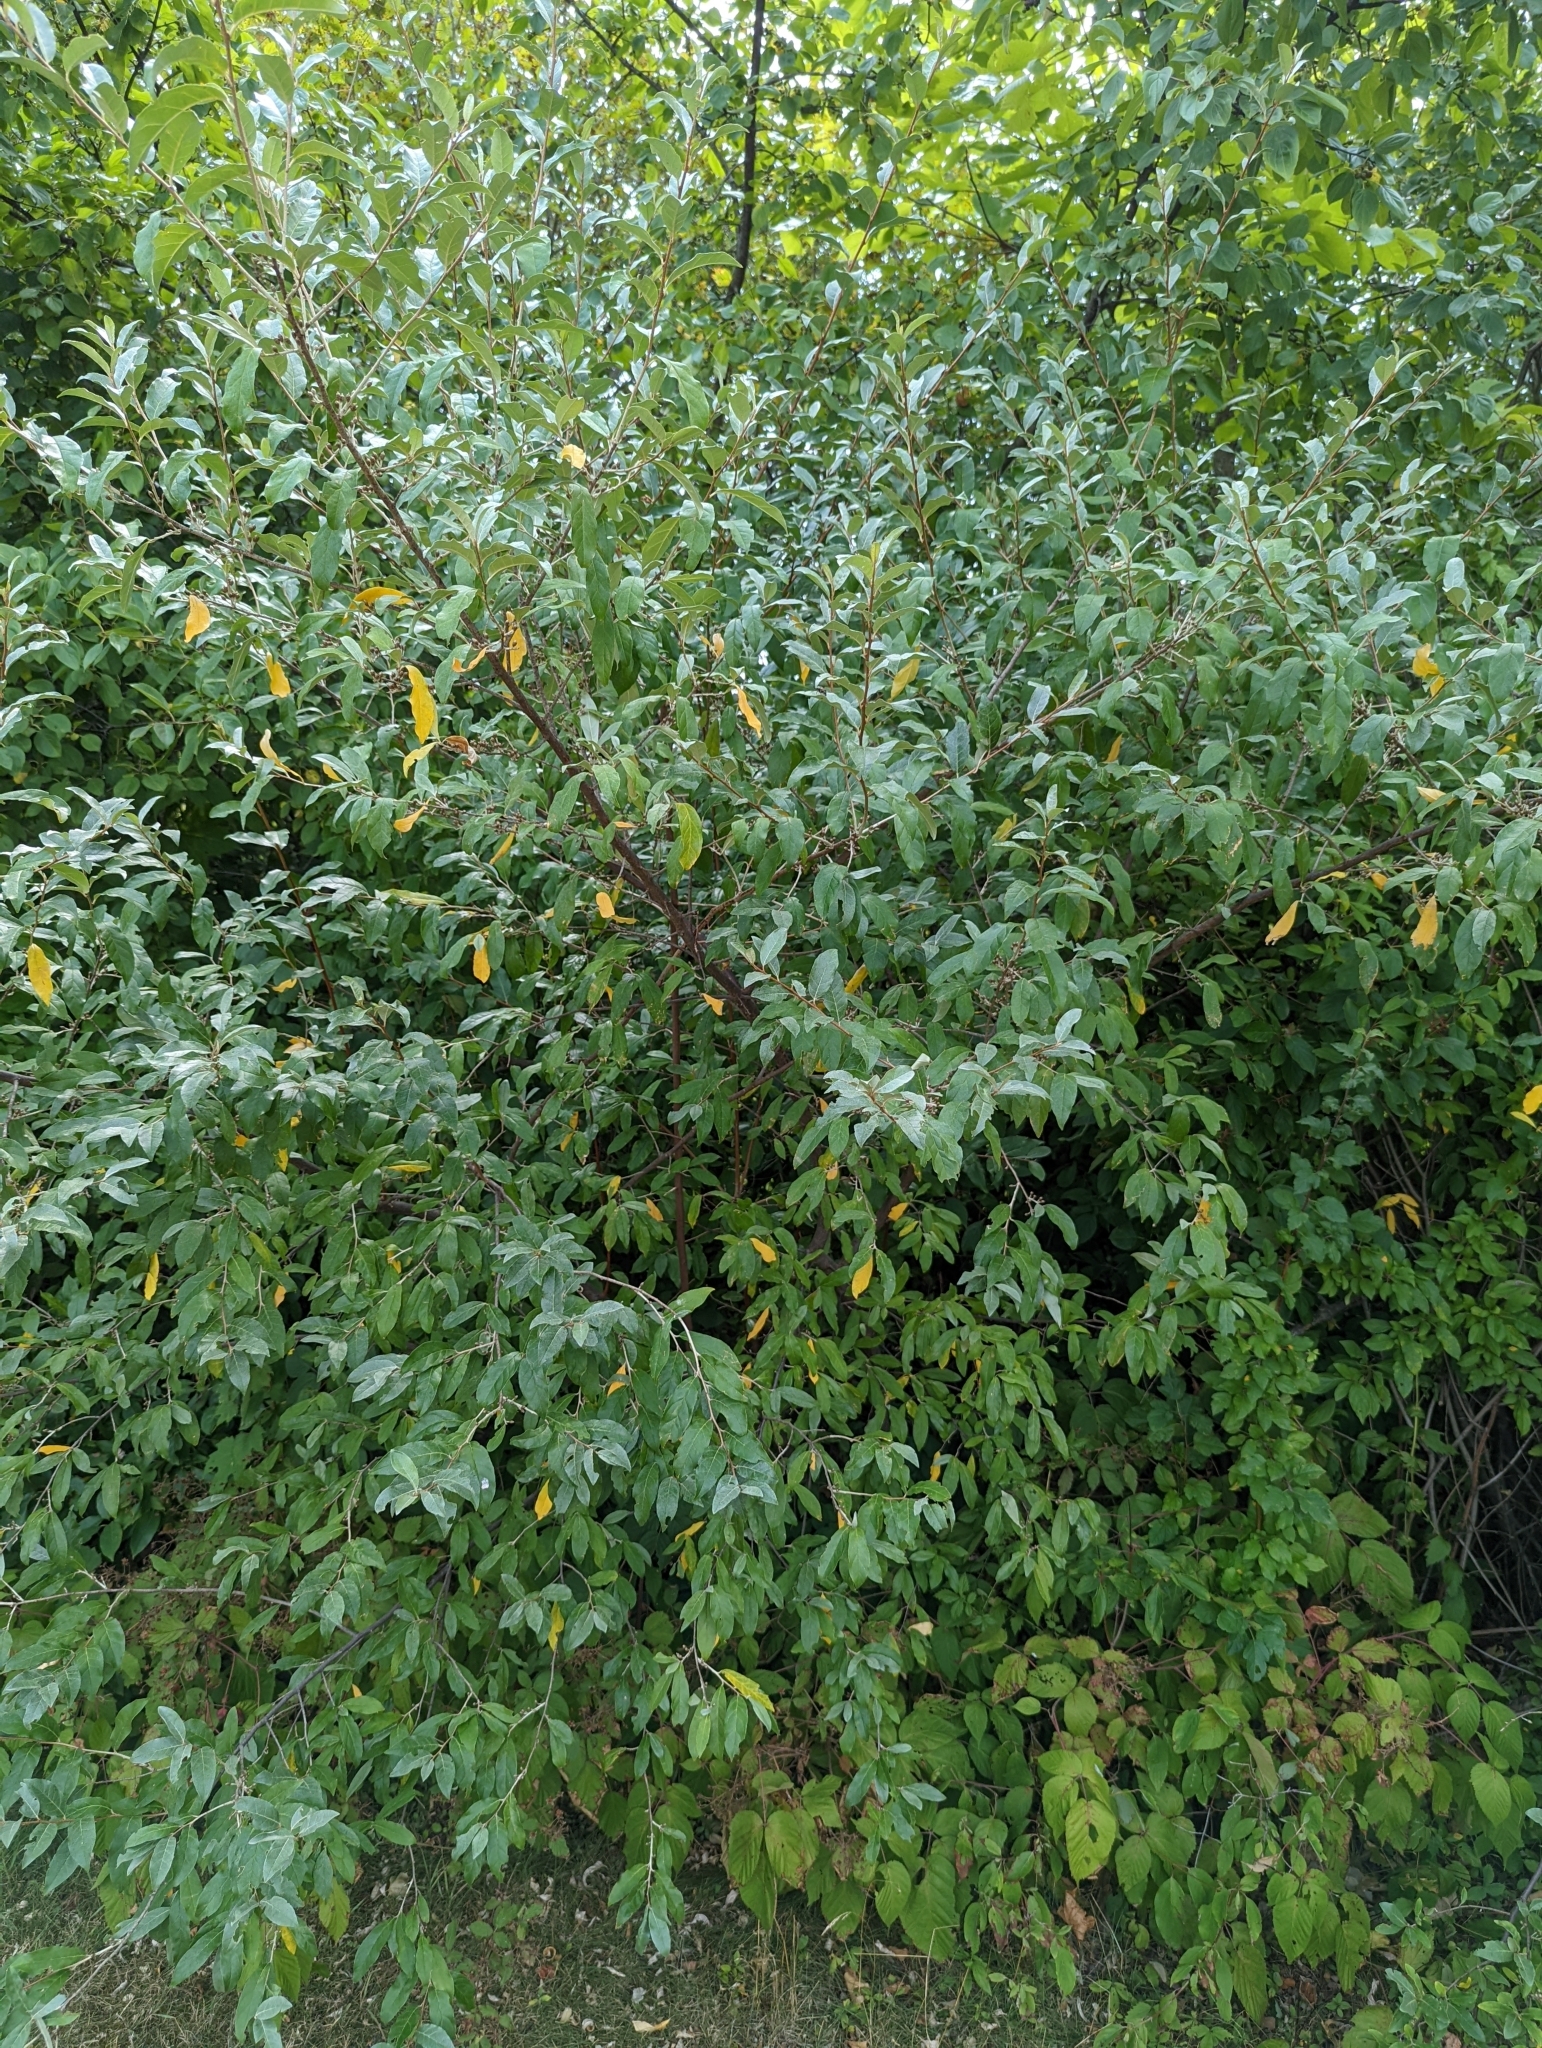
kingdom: Plantae
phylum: Tracheophyta
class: Magnoliopsida
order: Rosales
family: Elaeagnaceae
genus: Elaeagnus
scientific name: Elaeagnus umbellata
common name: Autumn olive
